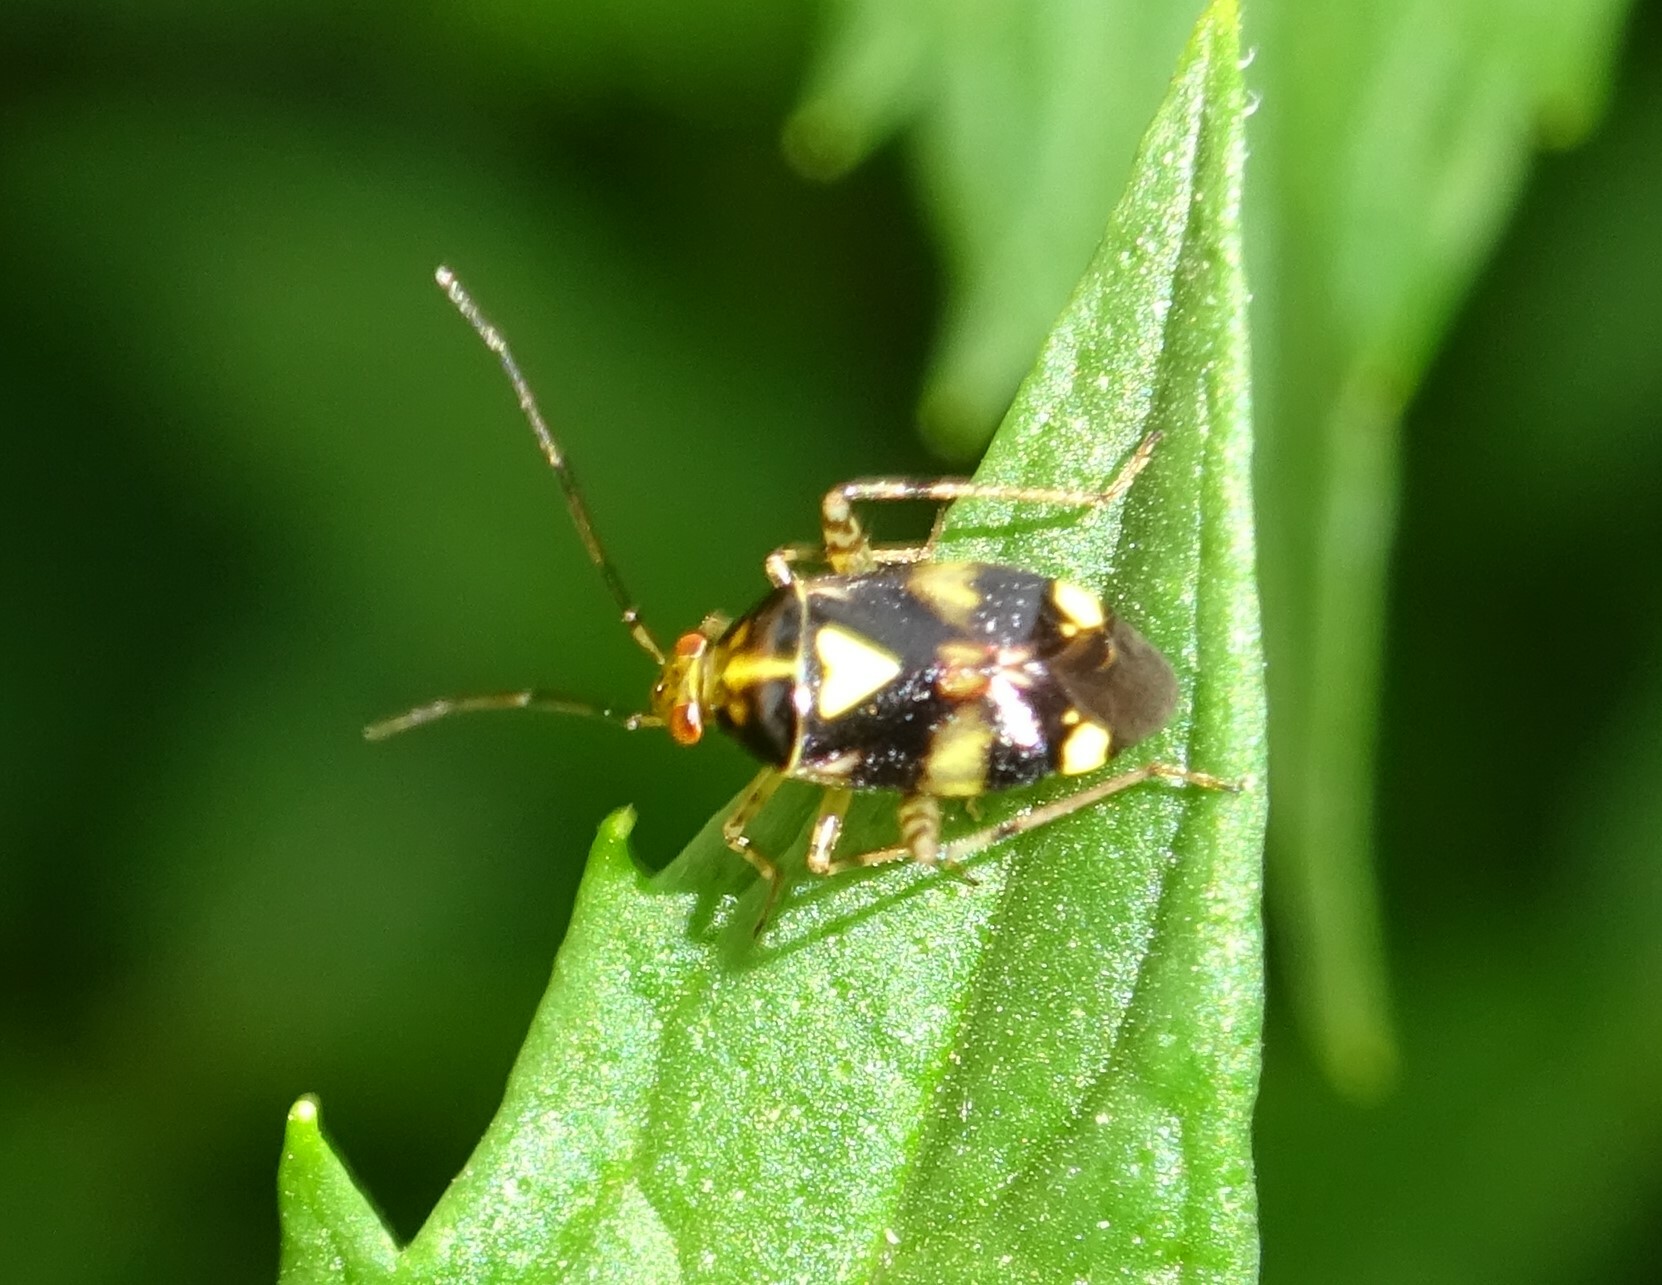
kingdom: Animalia
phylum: Arthropoda
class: Insecta
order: Hemiptera
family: Miridae
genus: Liocoris
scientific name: Liocoris tripustulatus
